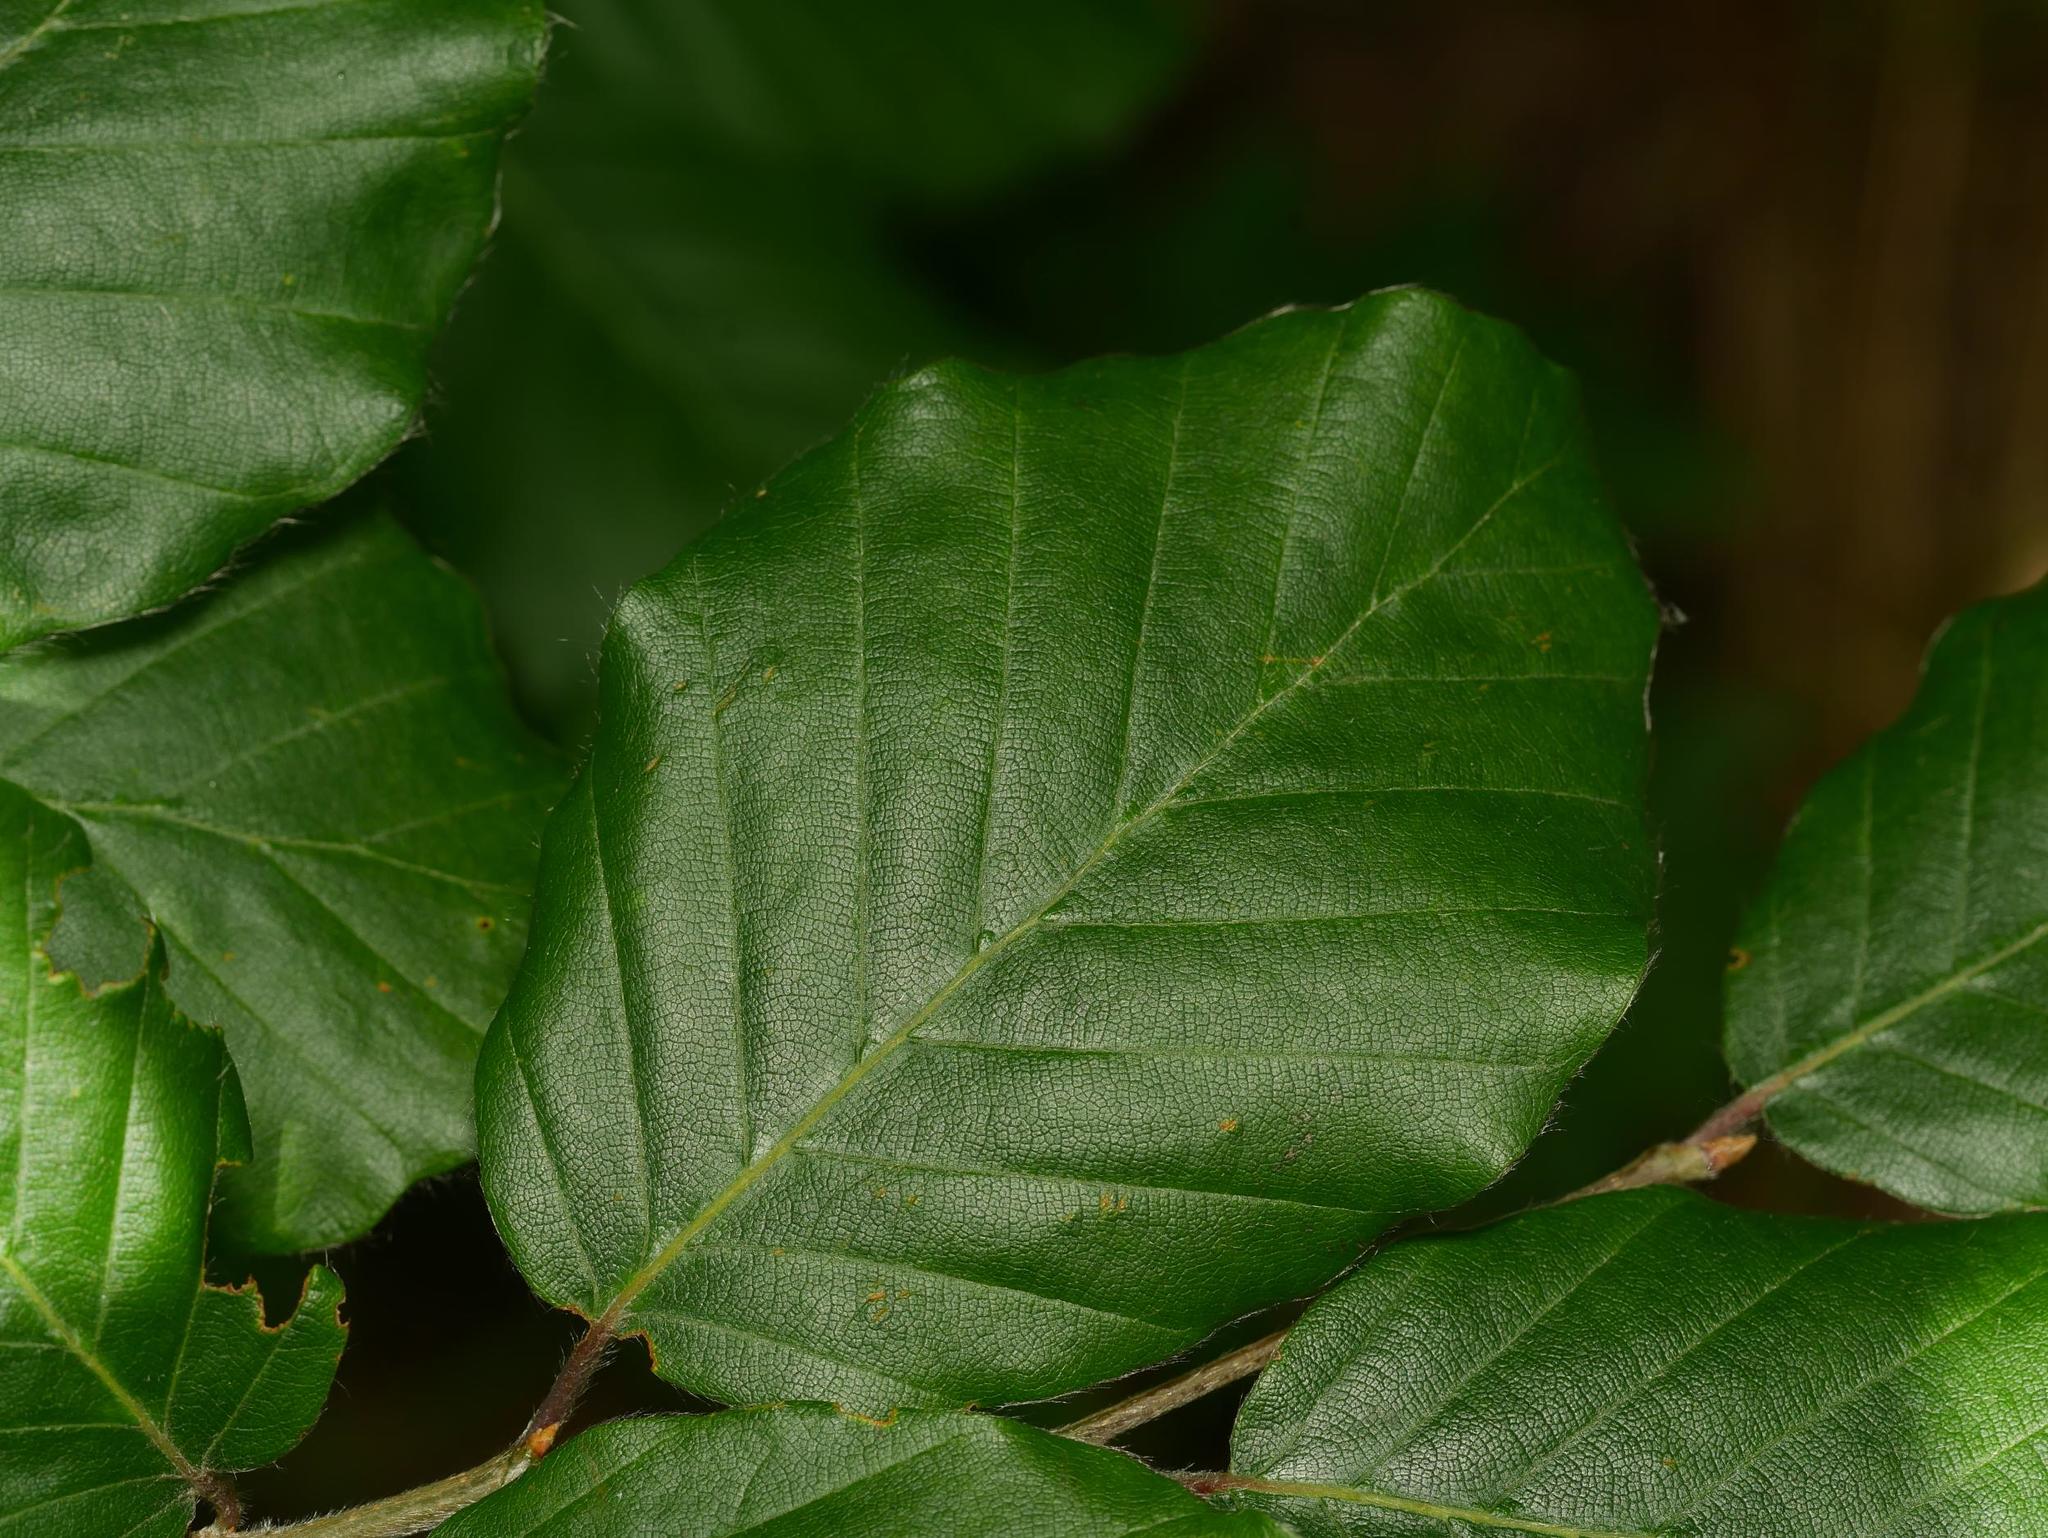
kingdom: Plantae
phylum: Tracheophyta
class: Magnoliopsida
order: Fagales
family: Fagaceae
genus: Fagus
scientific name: Fagus sylvatica
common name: Beech
